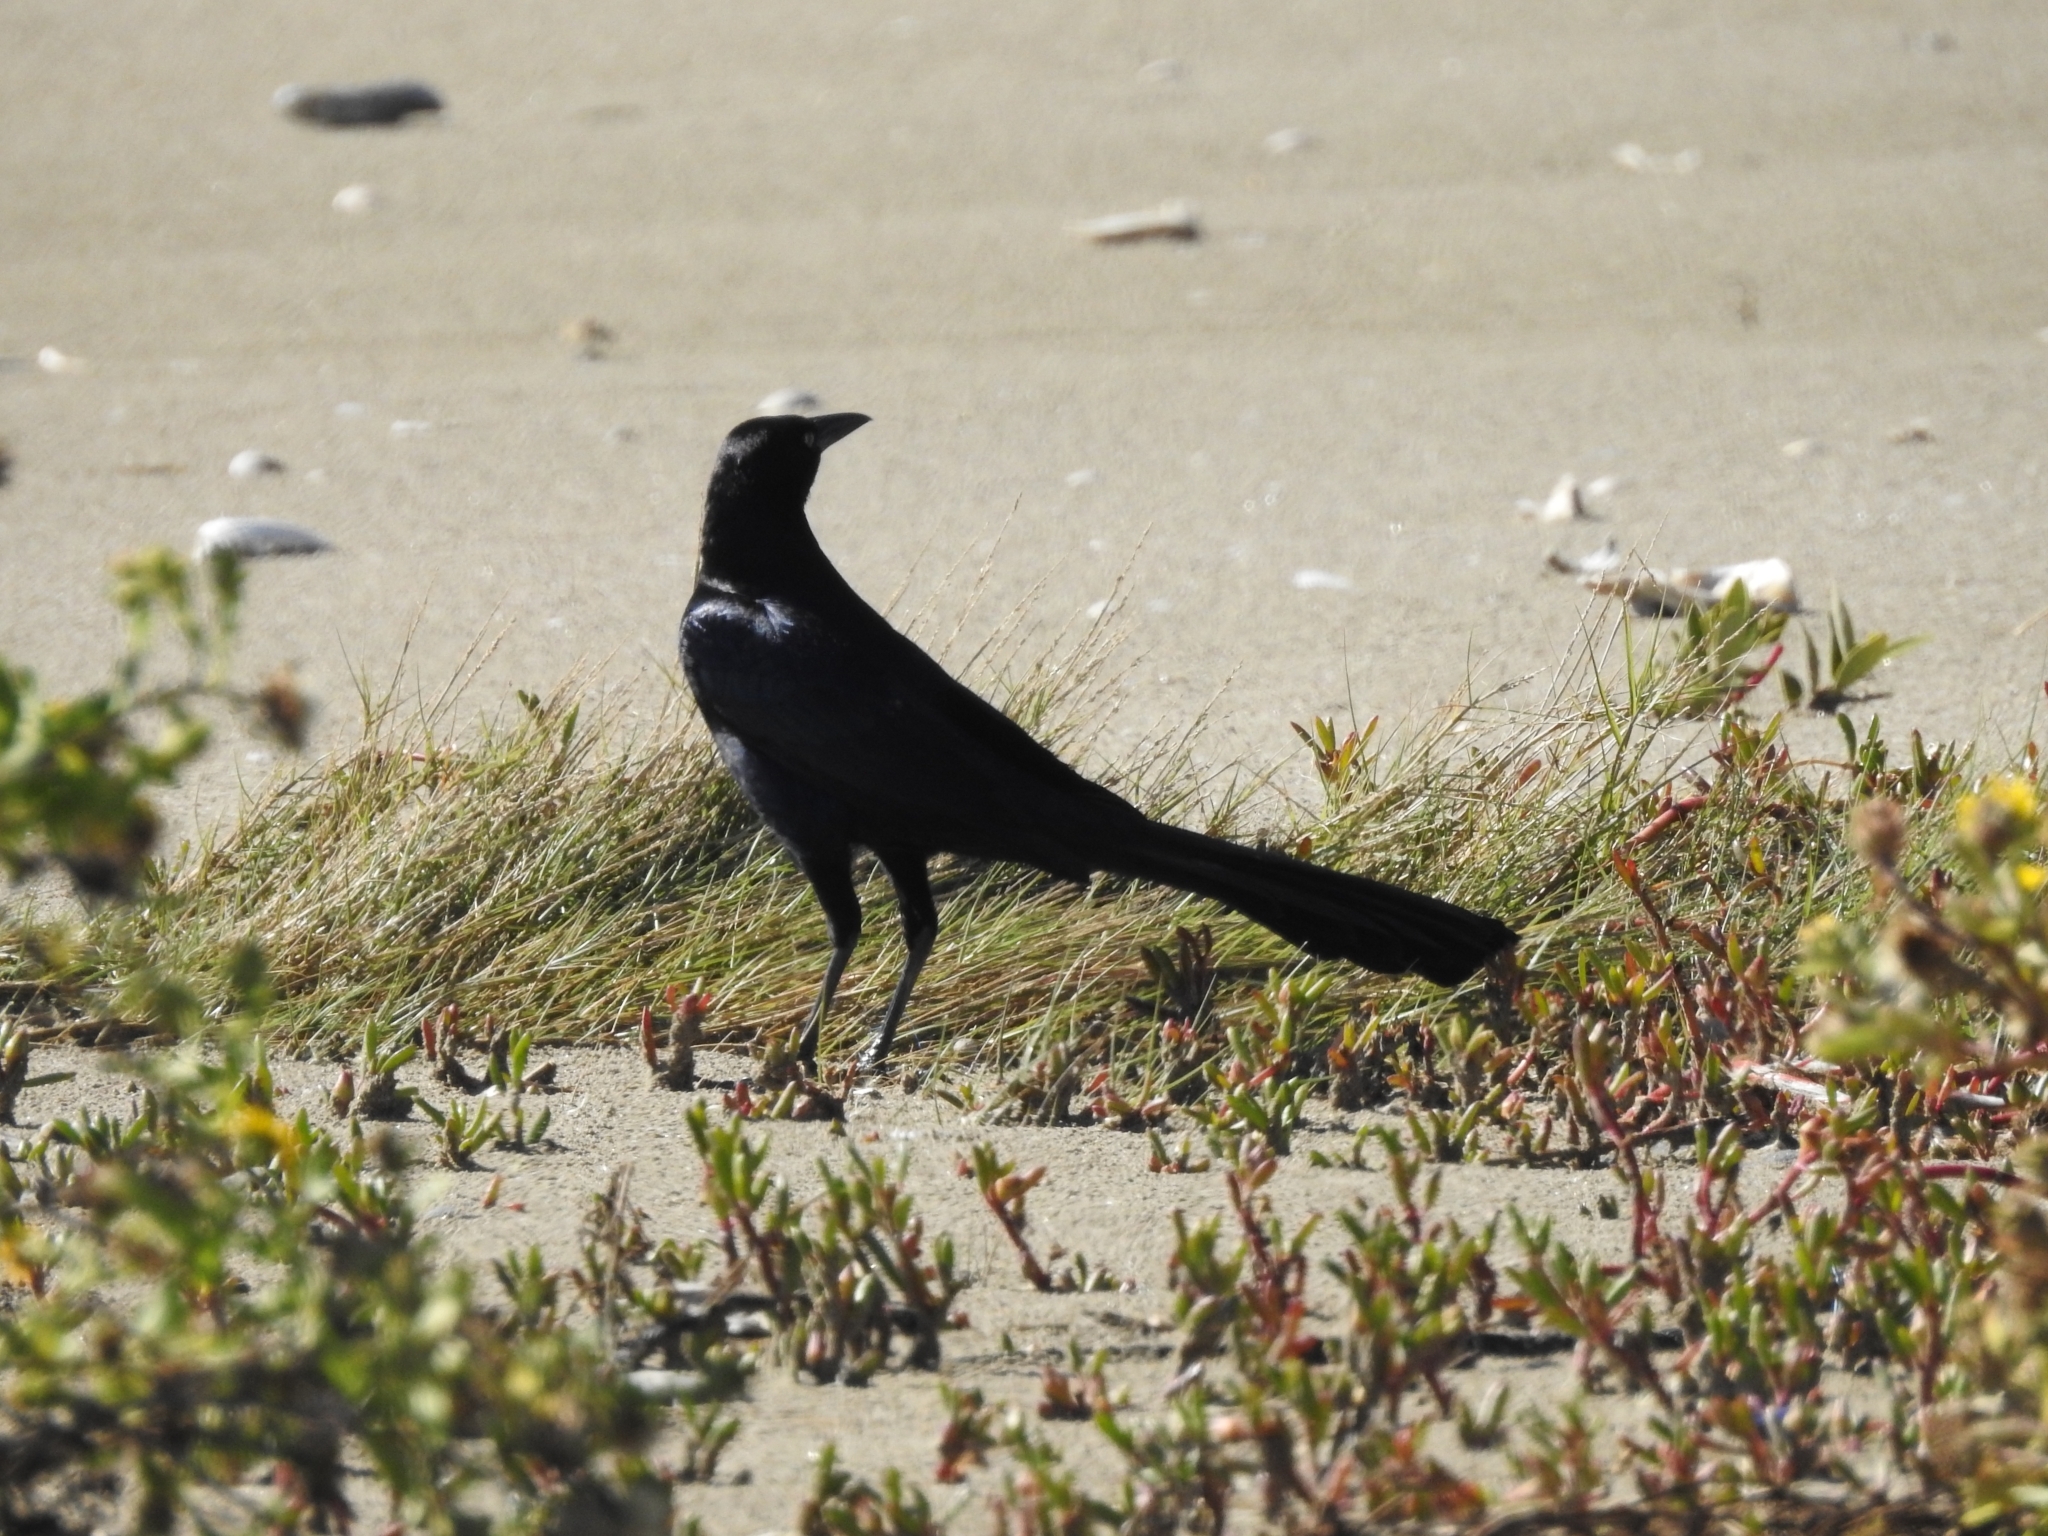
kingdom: Animalia
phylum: Chordata
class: Aves
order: Passeriformes
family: Icteridae
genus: Quiscalus
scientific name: Quiscalus mexicanus
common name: Great-tailed grackle
